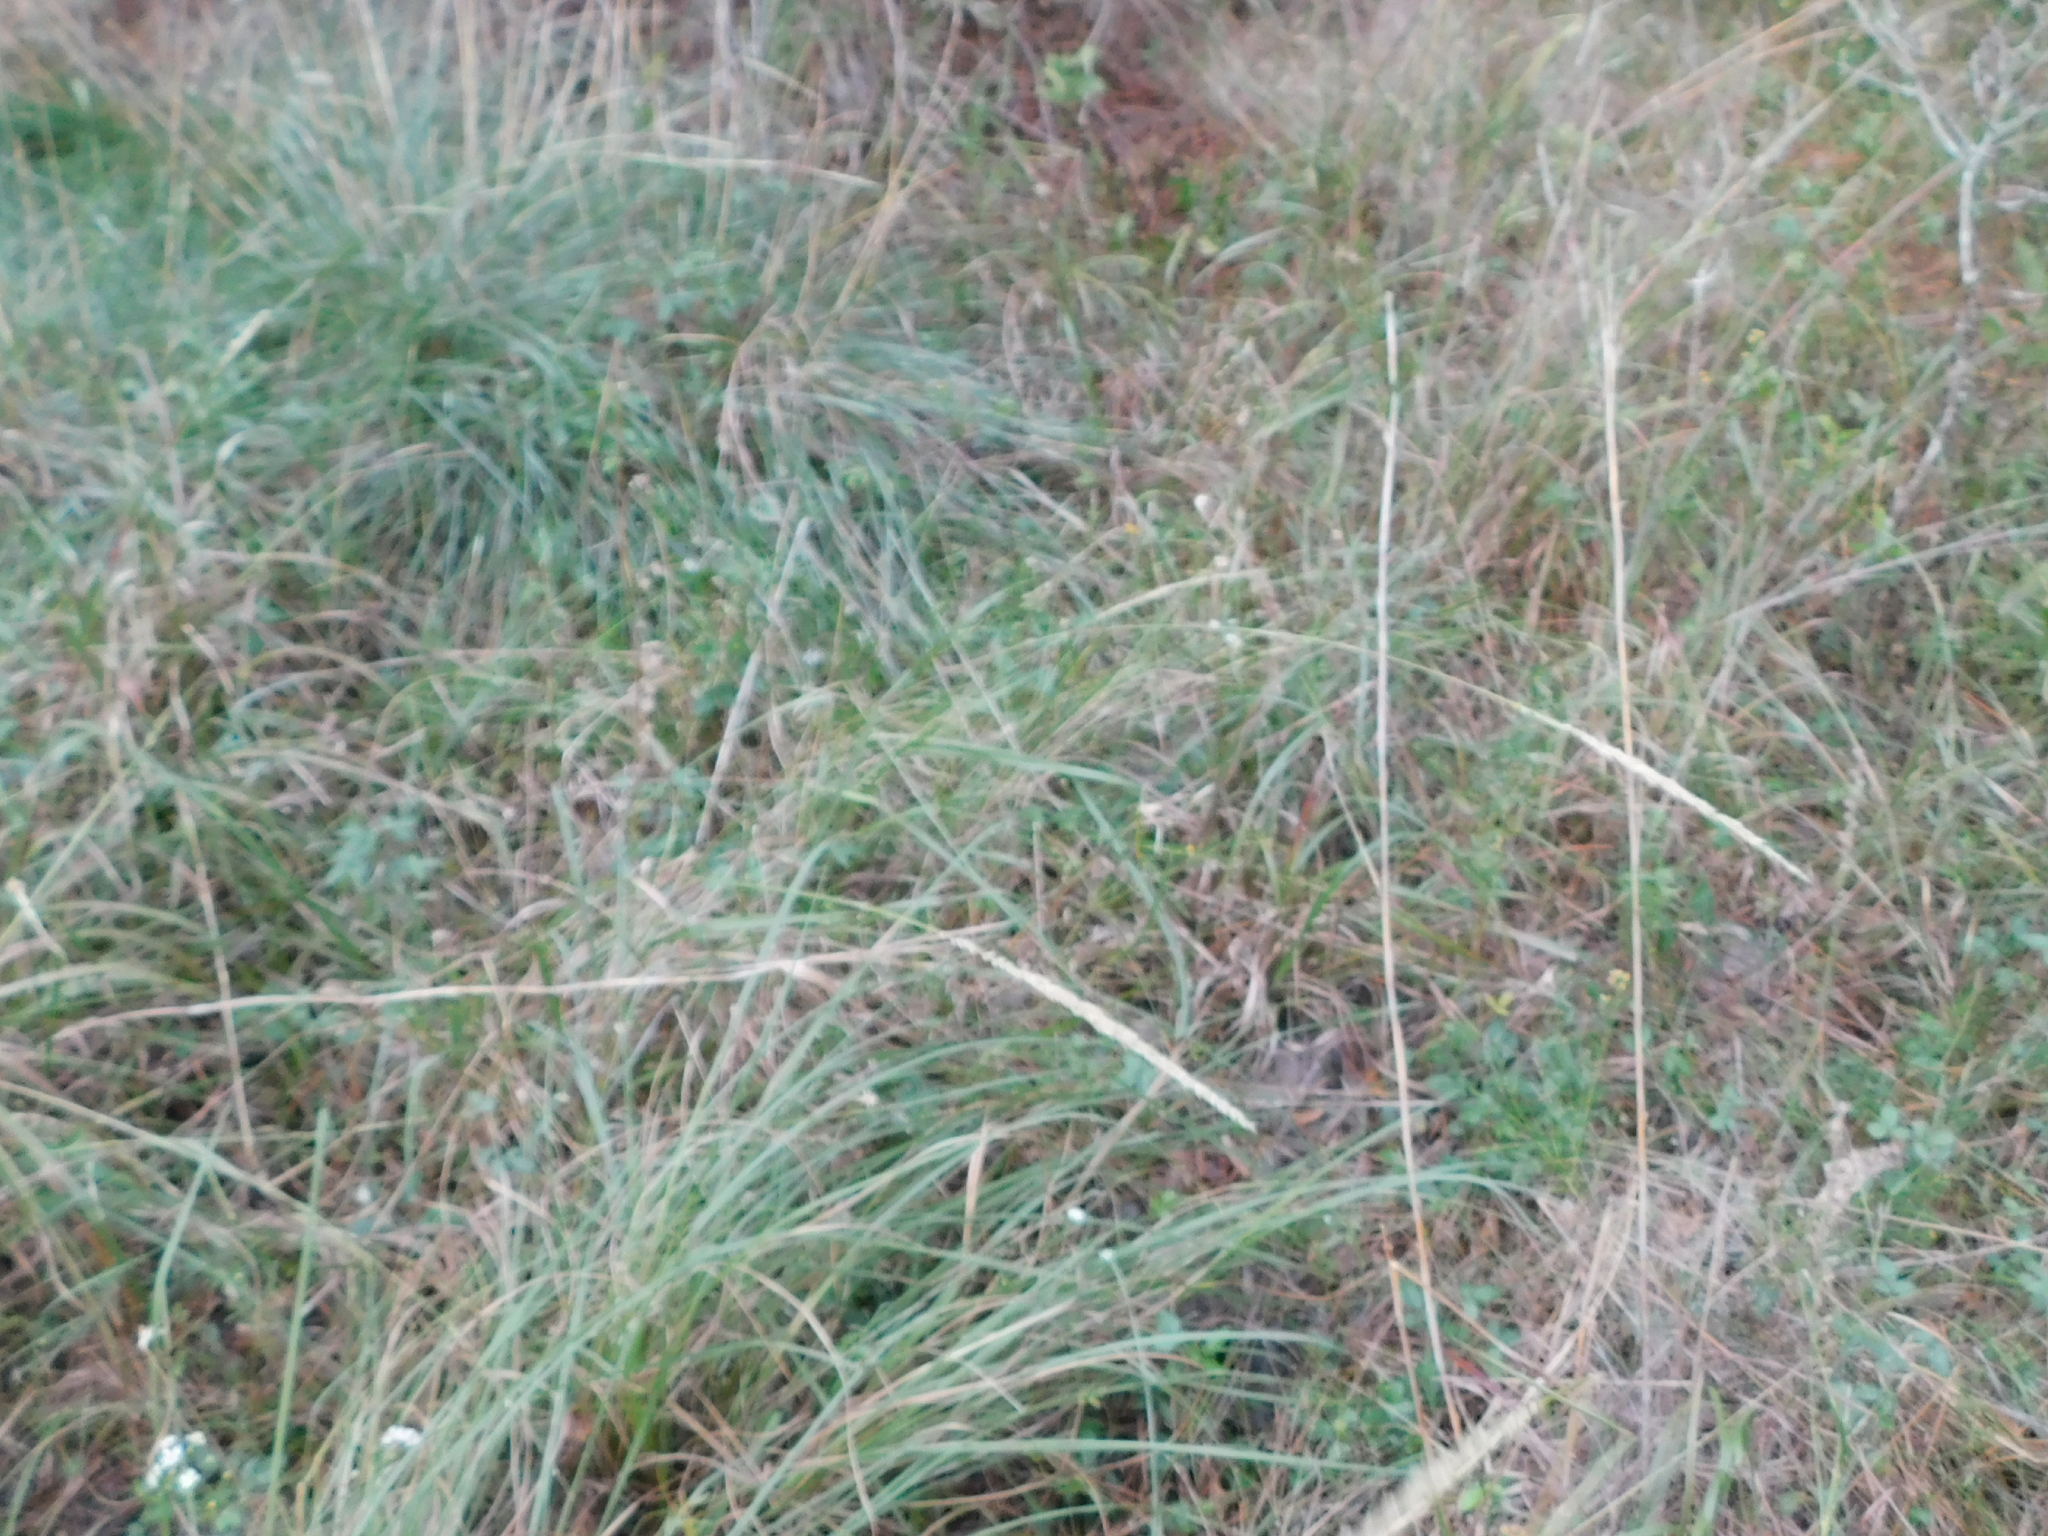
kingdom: Plantae
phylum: Tracheophyta
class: Liliopsida
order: Poales
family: Poaceae
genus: Tridens
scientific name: Tridens strictus
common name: Long-spike tridens
